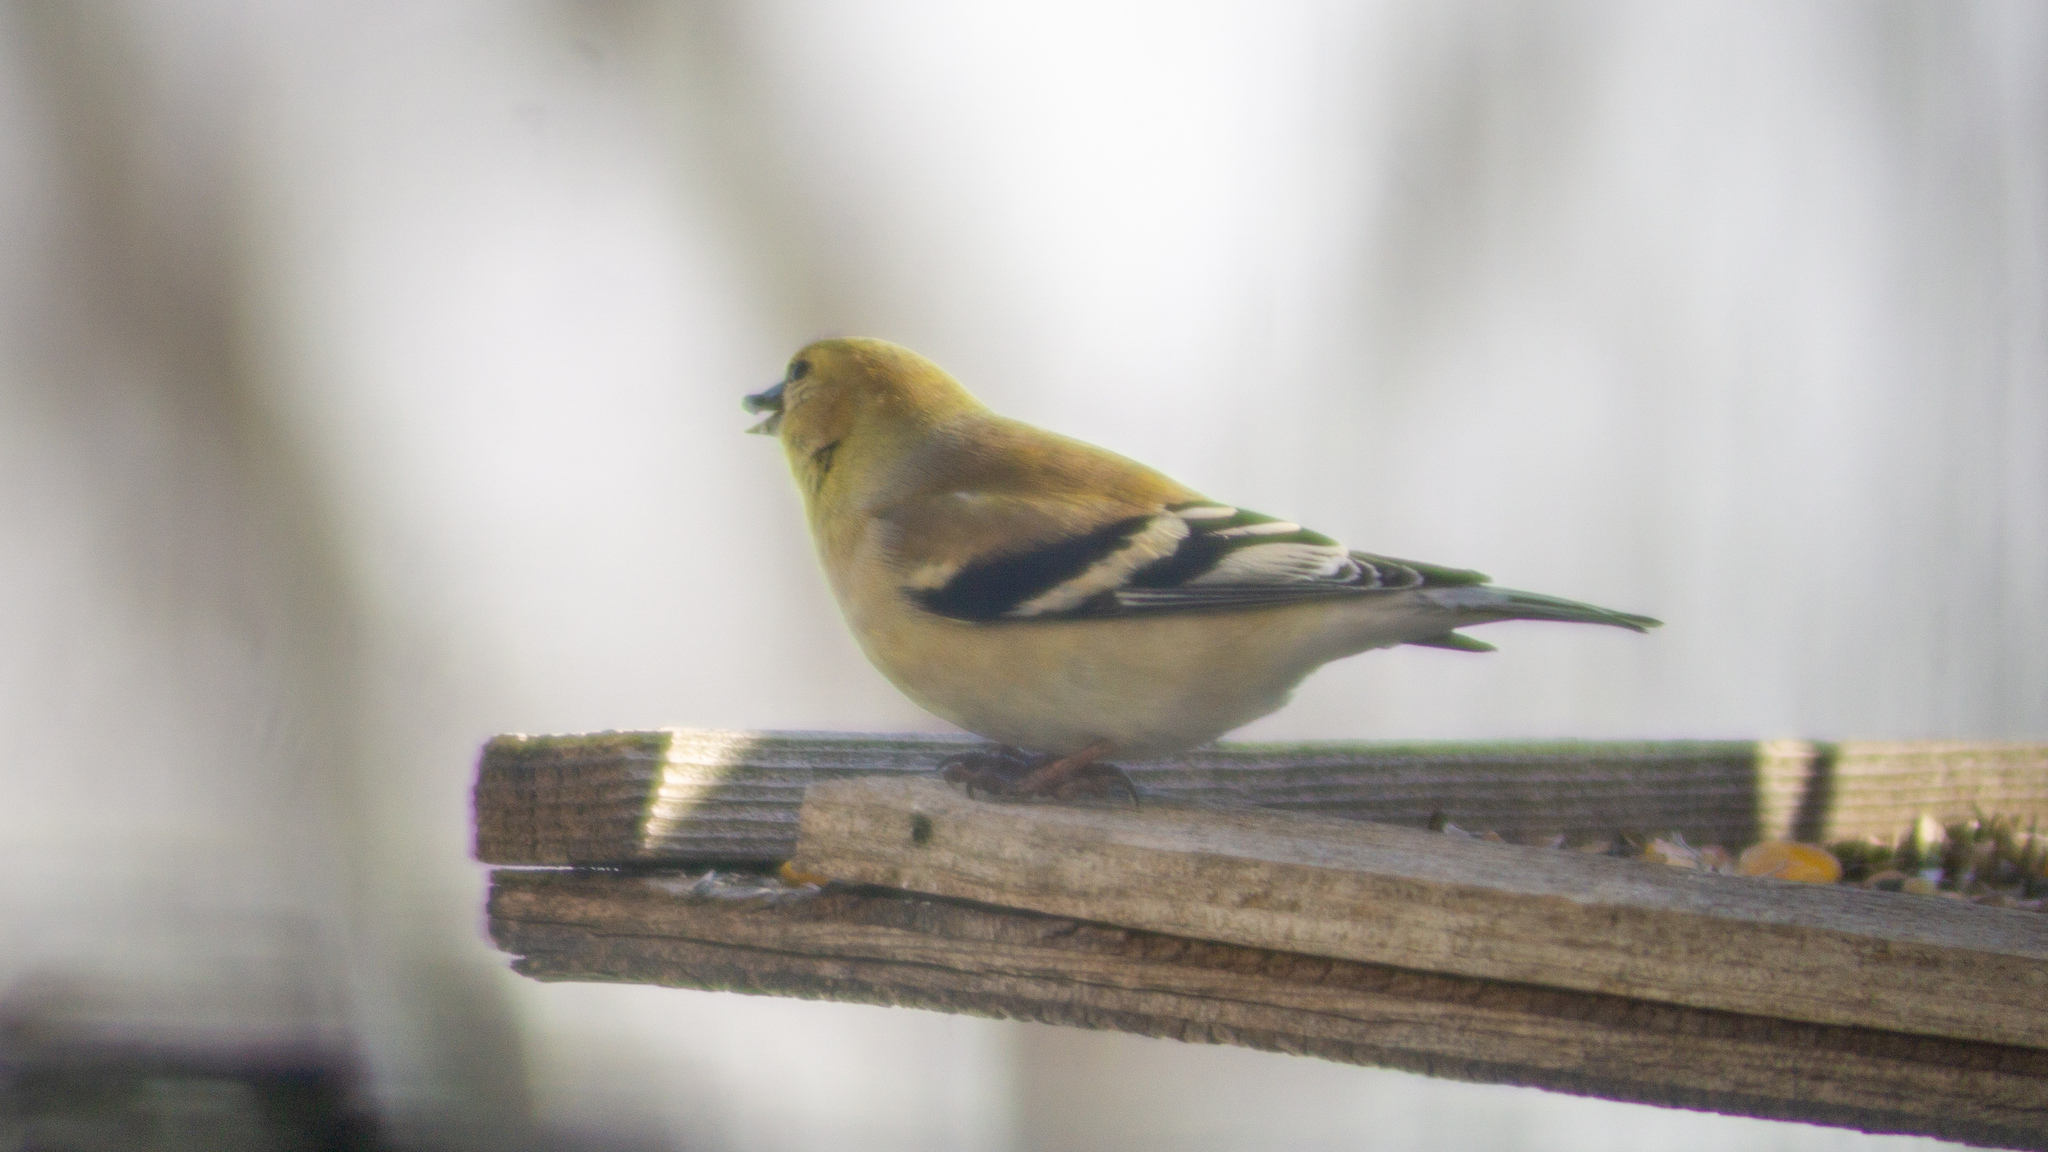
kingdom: Animalia
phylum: Chordata
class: Aves
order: Passeriformes
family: Fringillidae
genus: Spinus
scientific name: Spinus tristis
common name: American goldfinch
